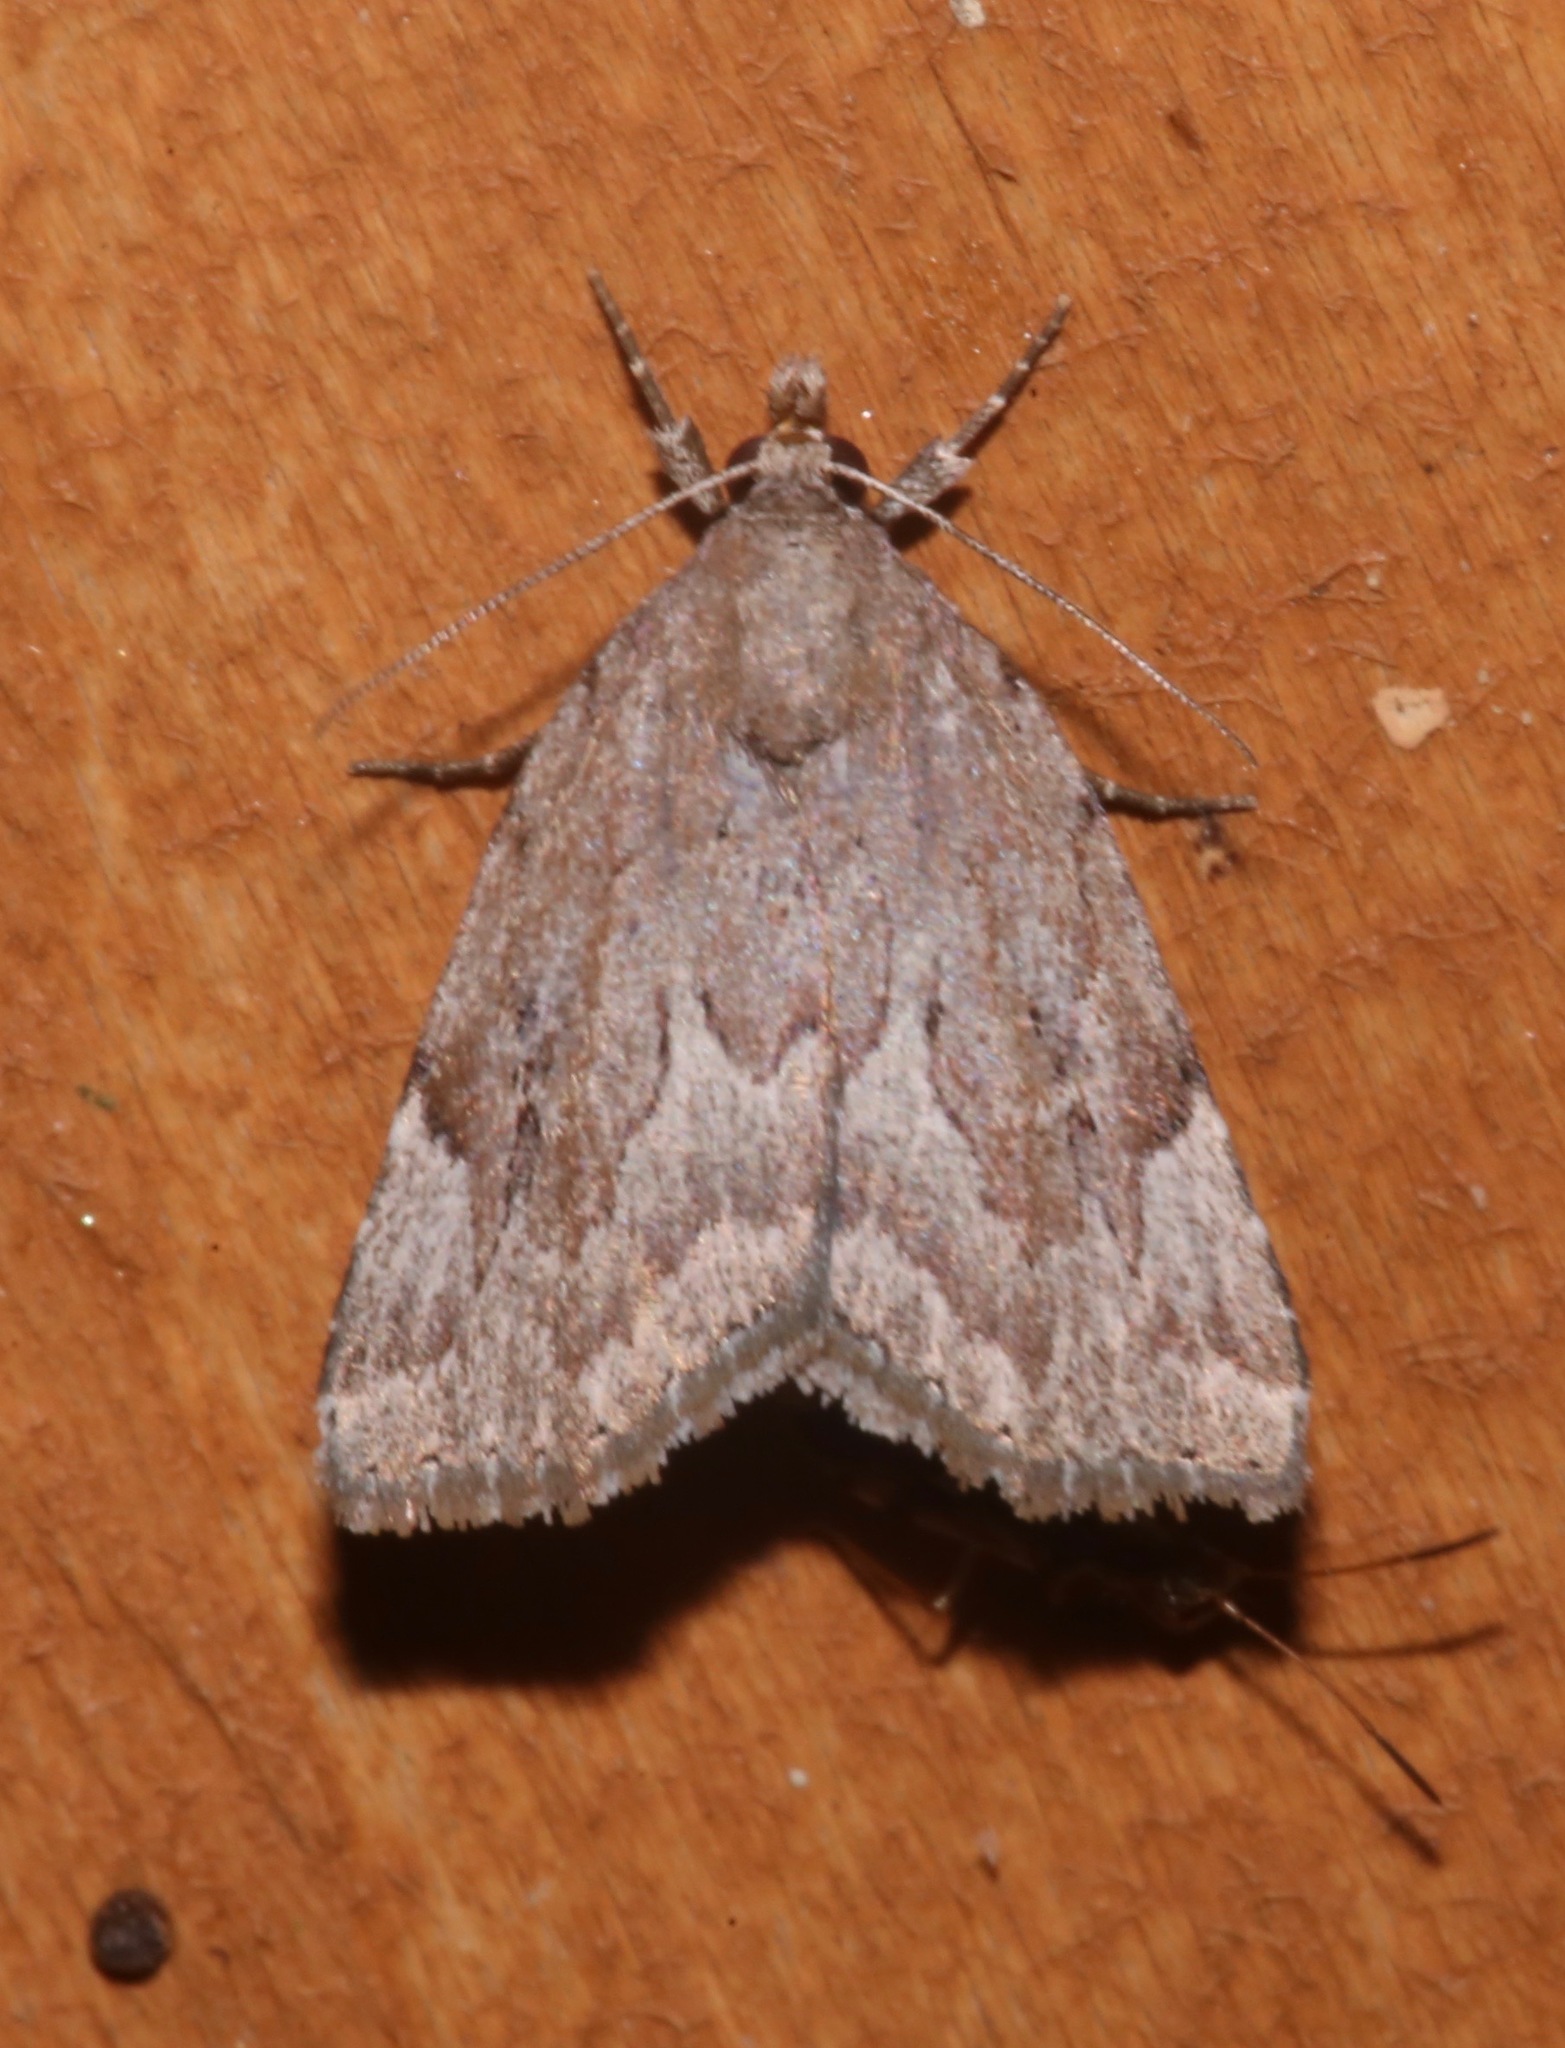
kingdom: Animalia
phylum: Arthropoda
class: Insecta
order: Lepidoptera
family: Erebidae
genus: Cutina
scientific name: Cutina albopunctella
